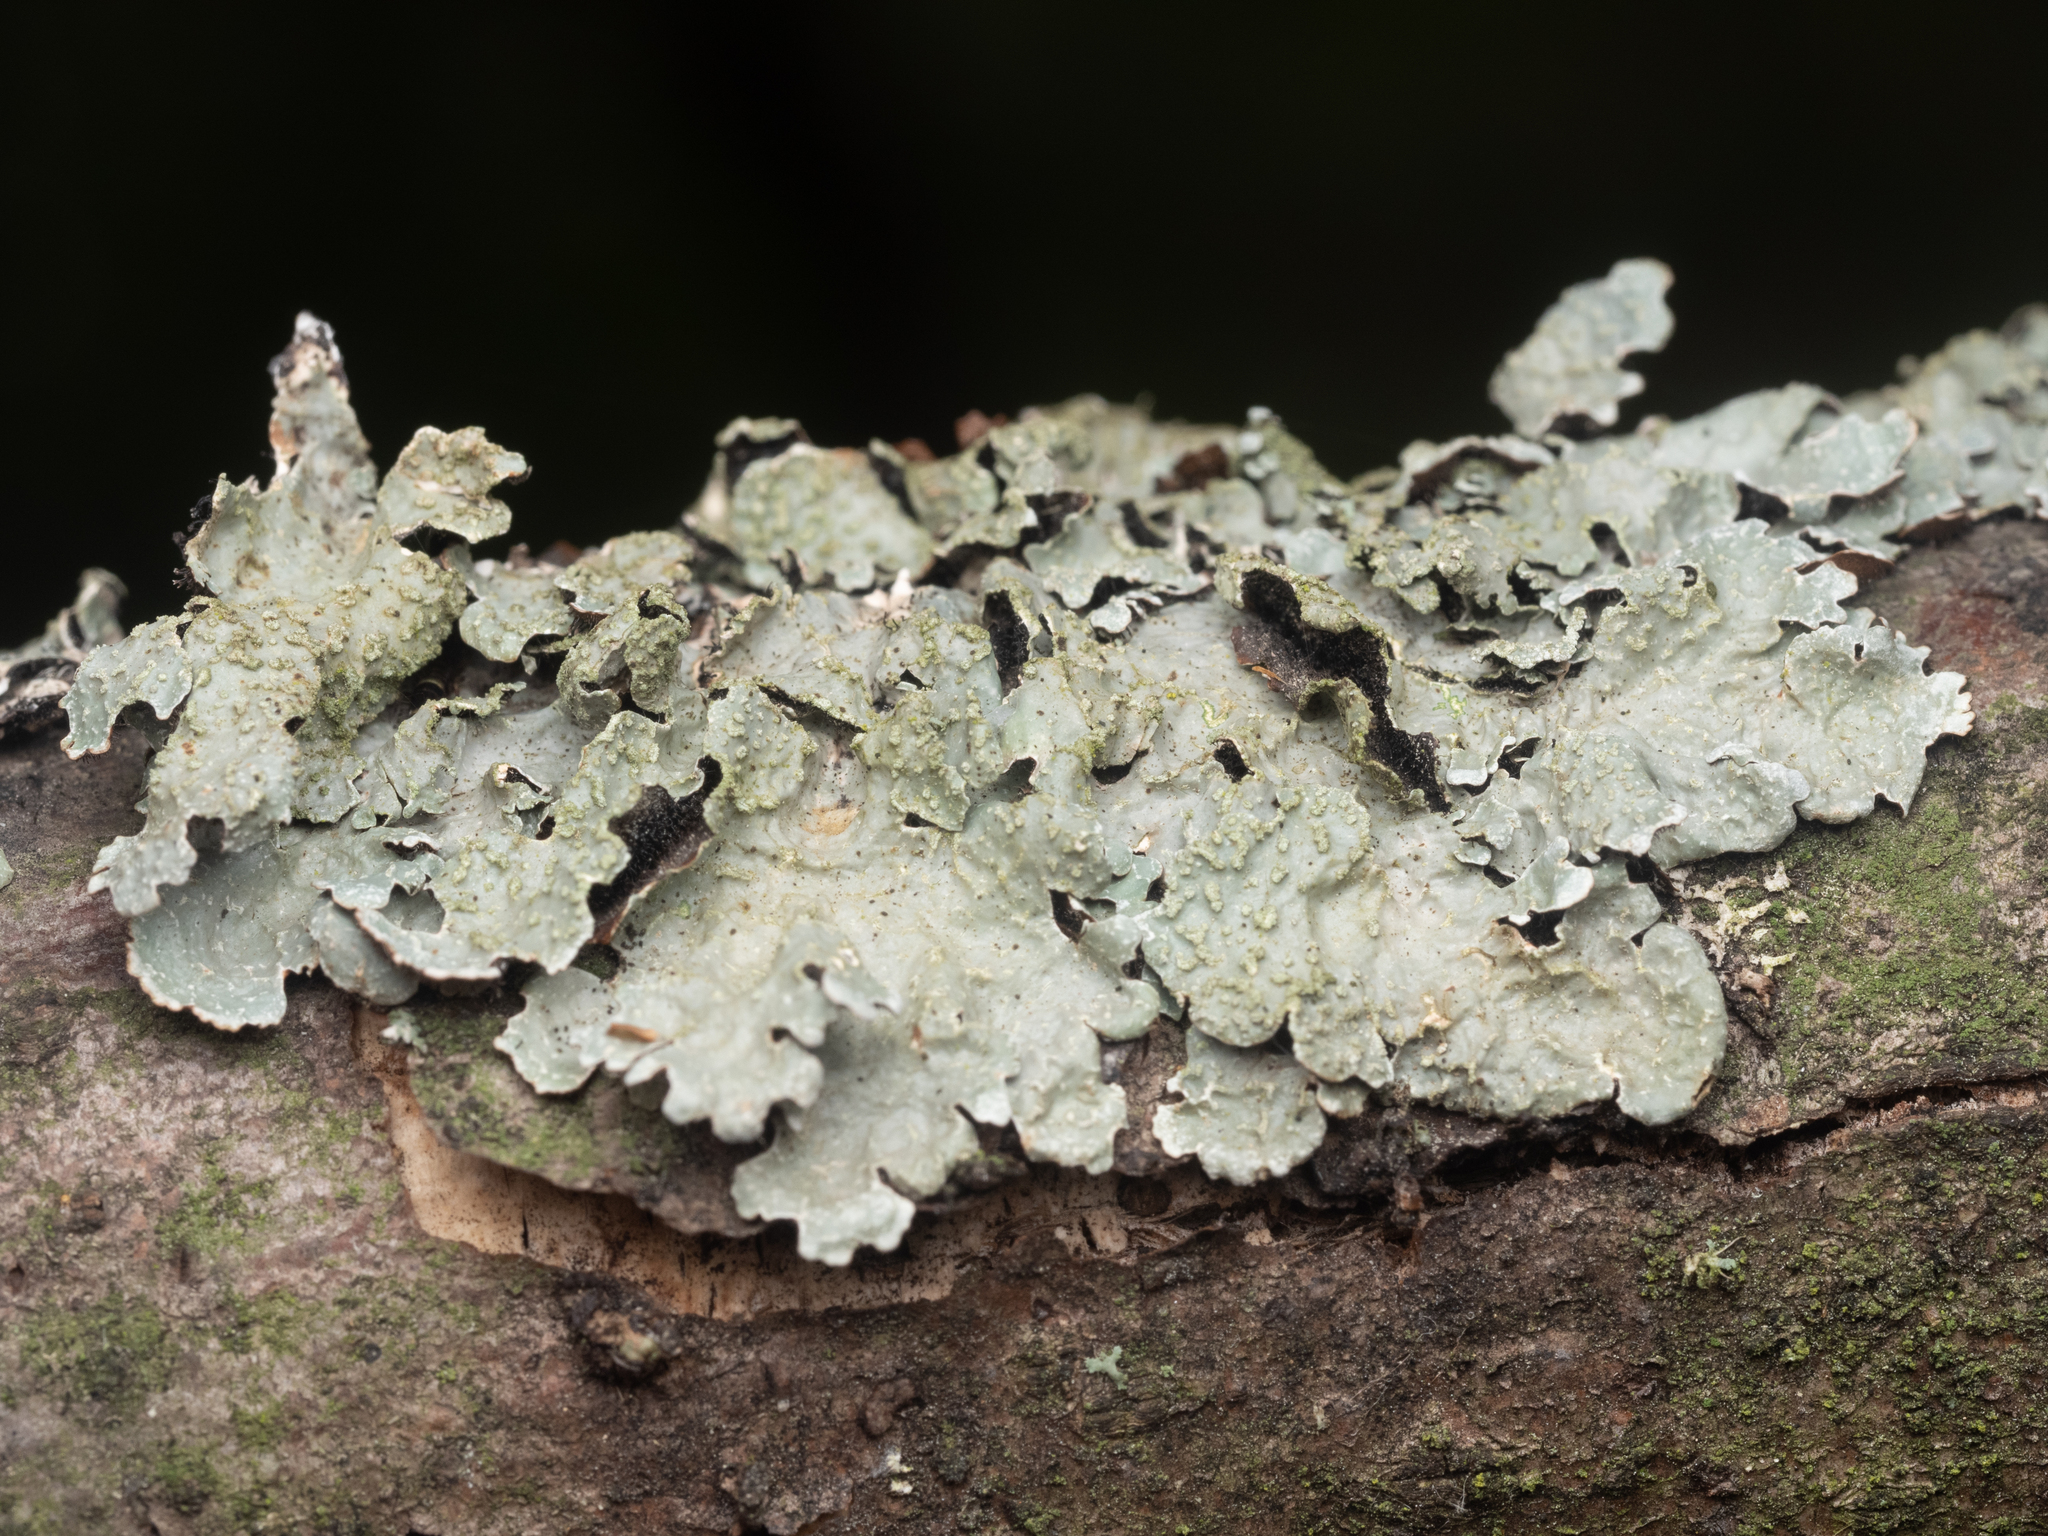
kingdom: Fungi
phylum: Ascomycota
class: Lecanoromycetes
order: Lecanorales
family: Parmeliaceae
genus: Parmelia
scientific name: Parmelia sulcata
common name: Netted shield lichen
